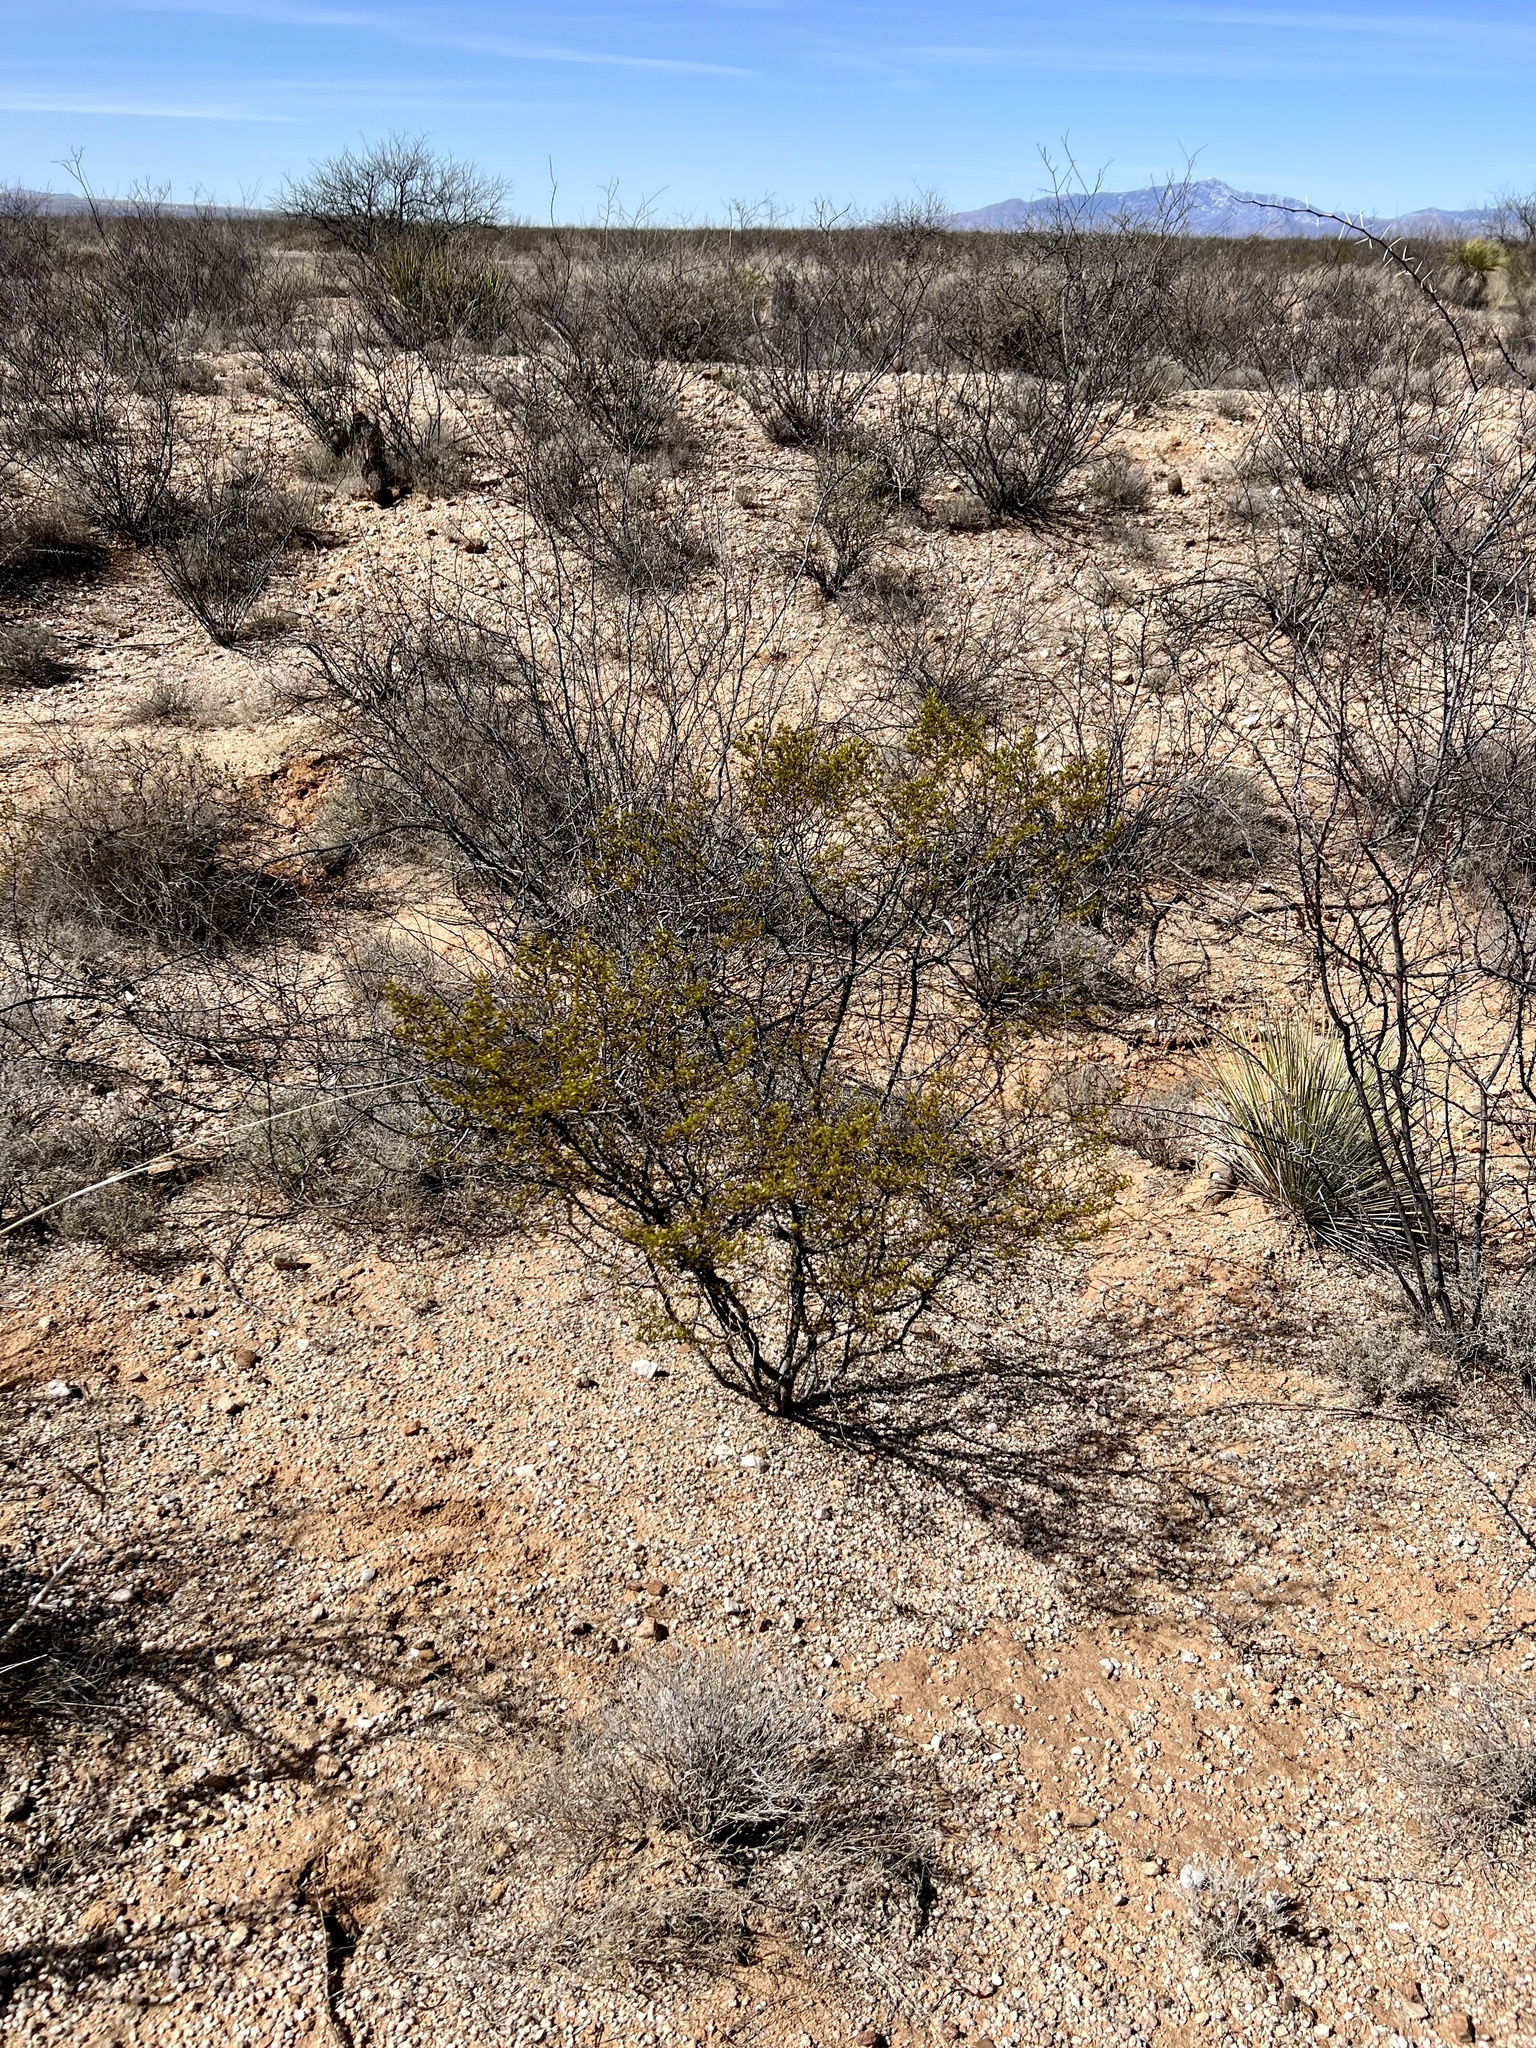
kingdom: Plantae
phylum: Tracheophyta
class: Magnoliopsida
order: Zygophyllales
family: Zygophyllaceae
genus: Larrea
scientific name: Larrea tridentata
